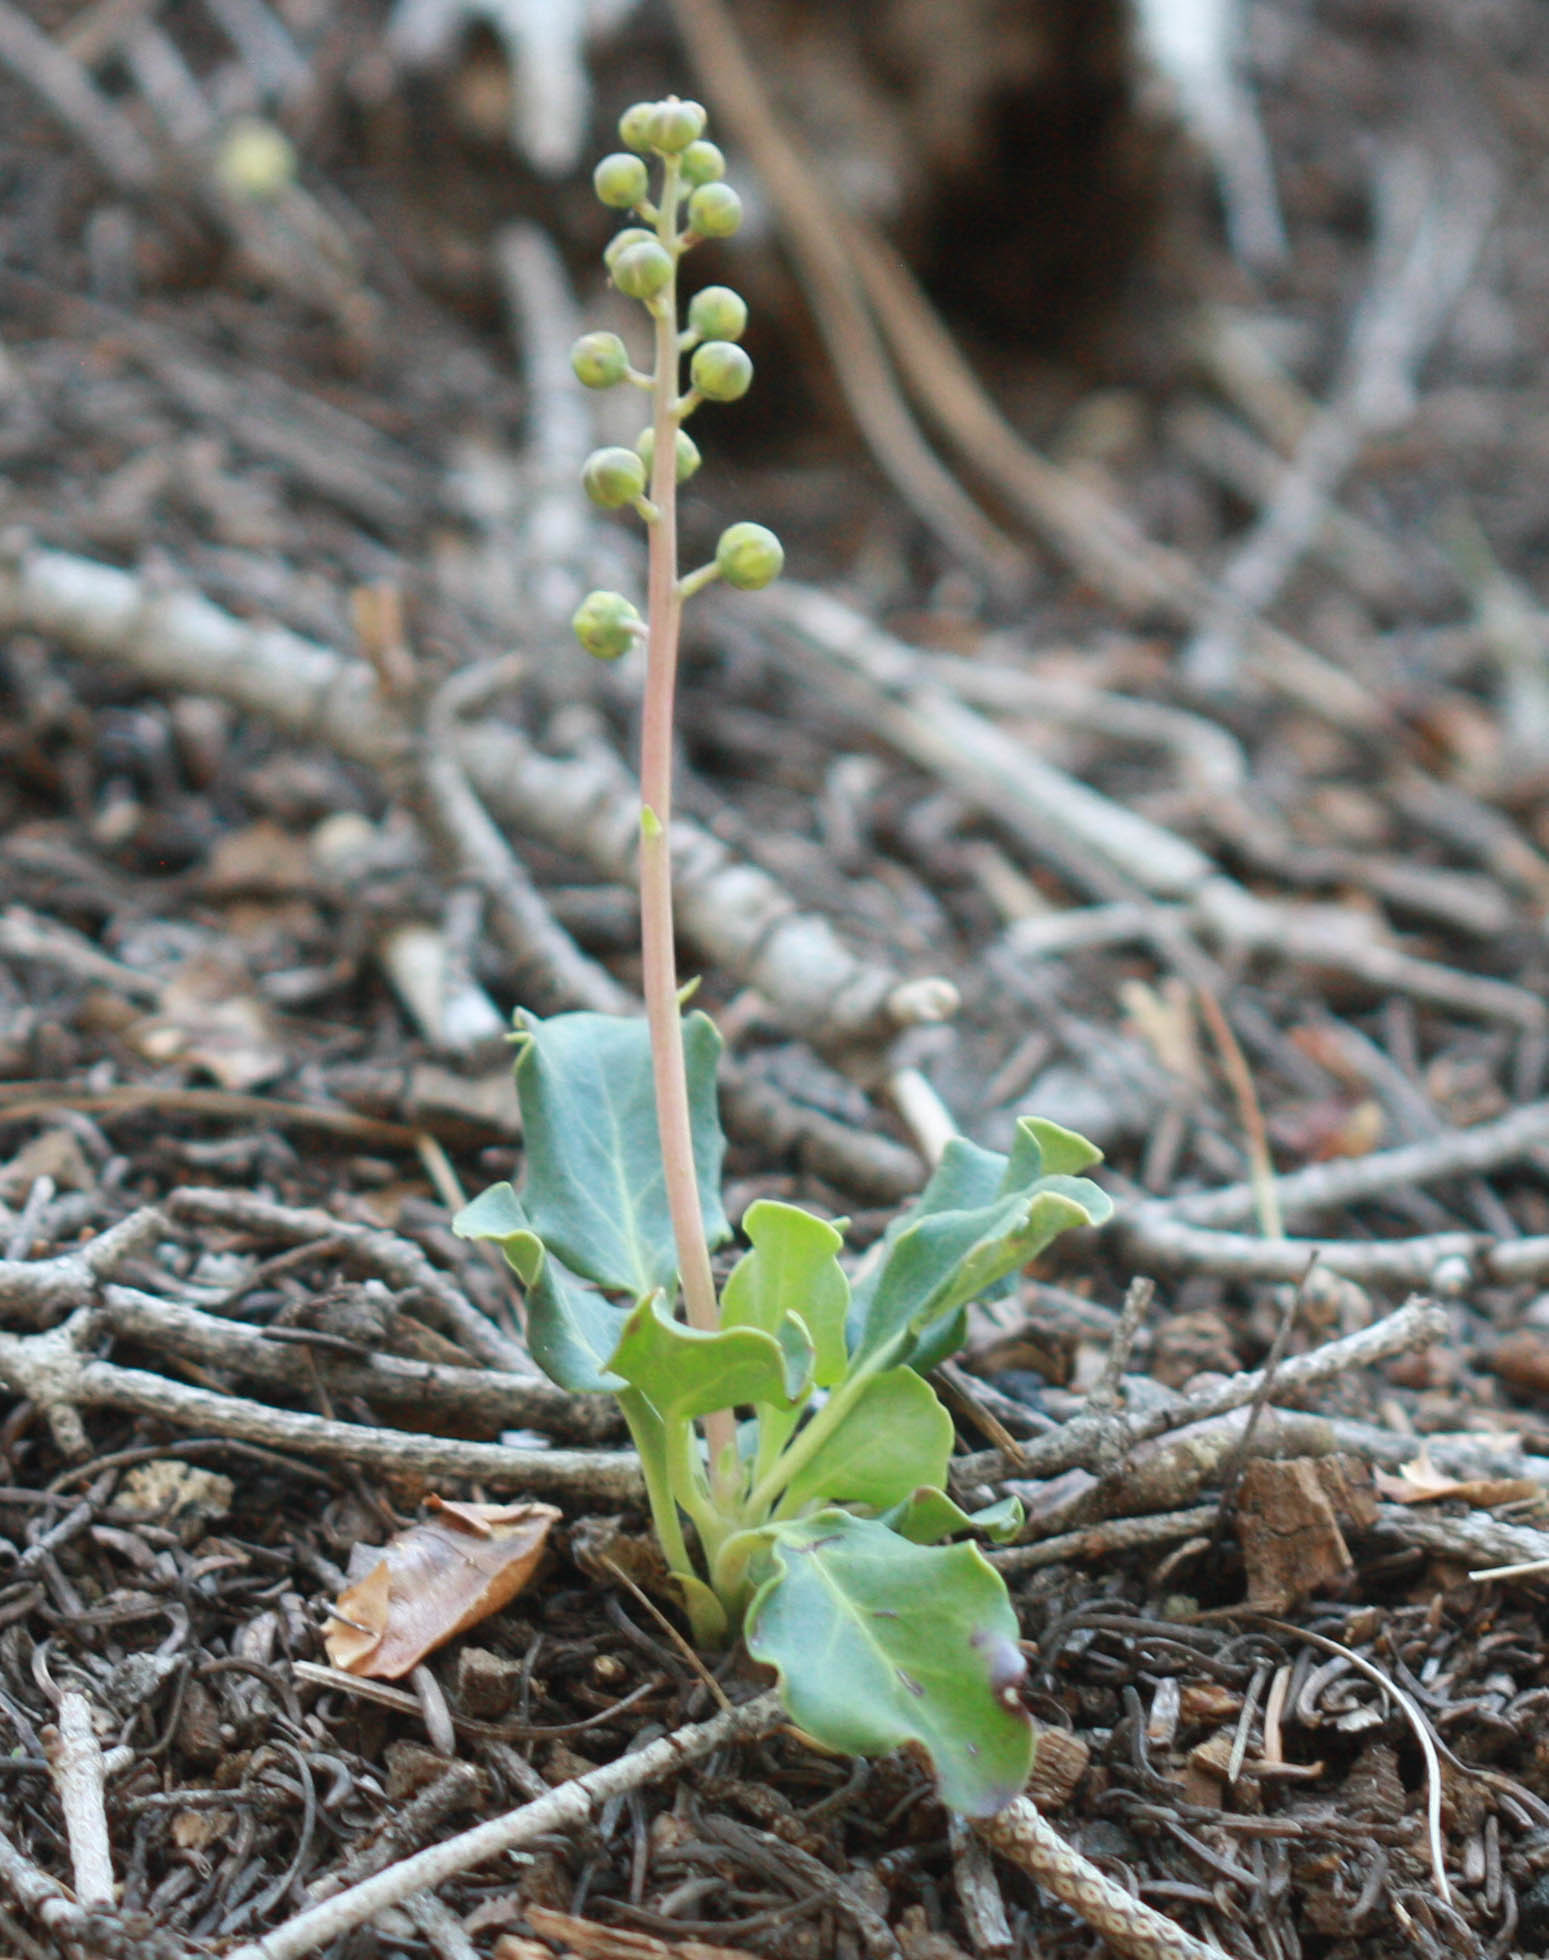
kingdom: Plantae
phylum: Tracheophyta
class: Magnoliopsida
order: Ericales
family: Ericaceae
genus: Pyrola
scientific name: Pyrola dentata
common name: Tooth-leaved wintergreen
